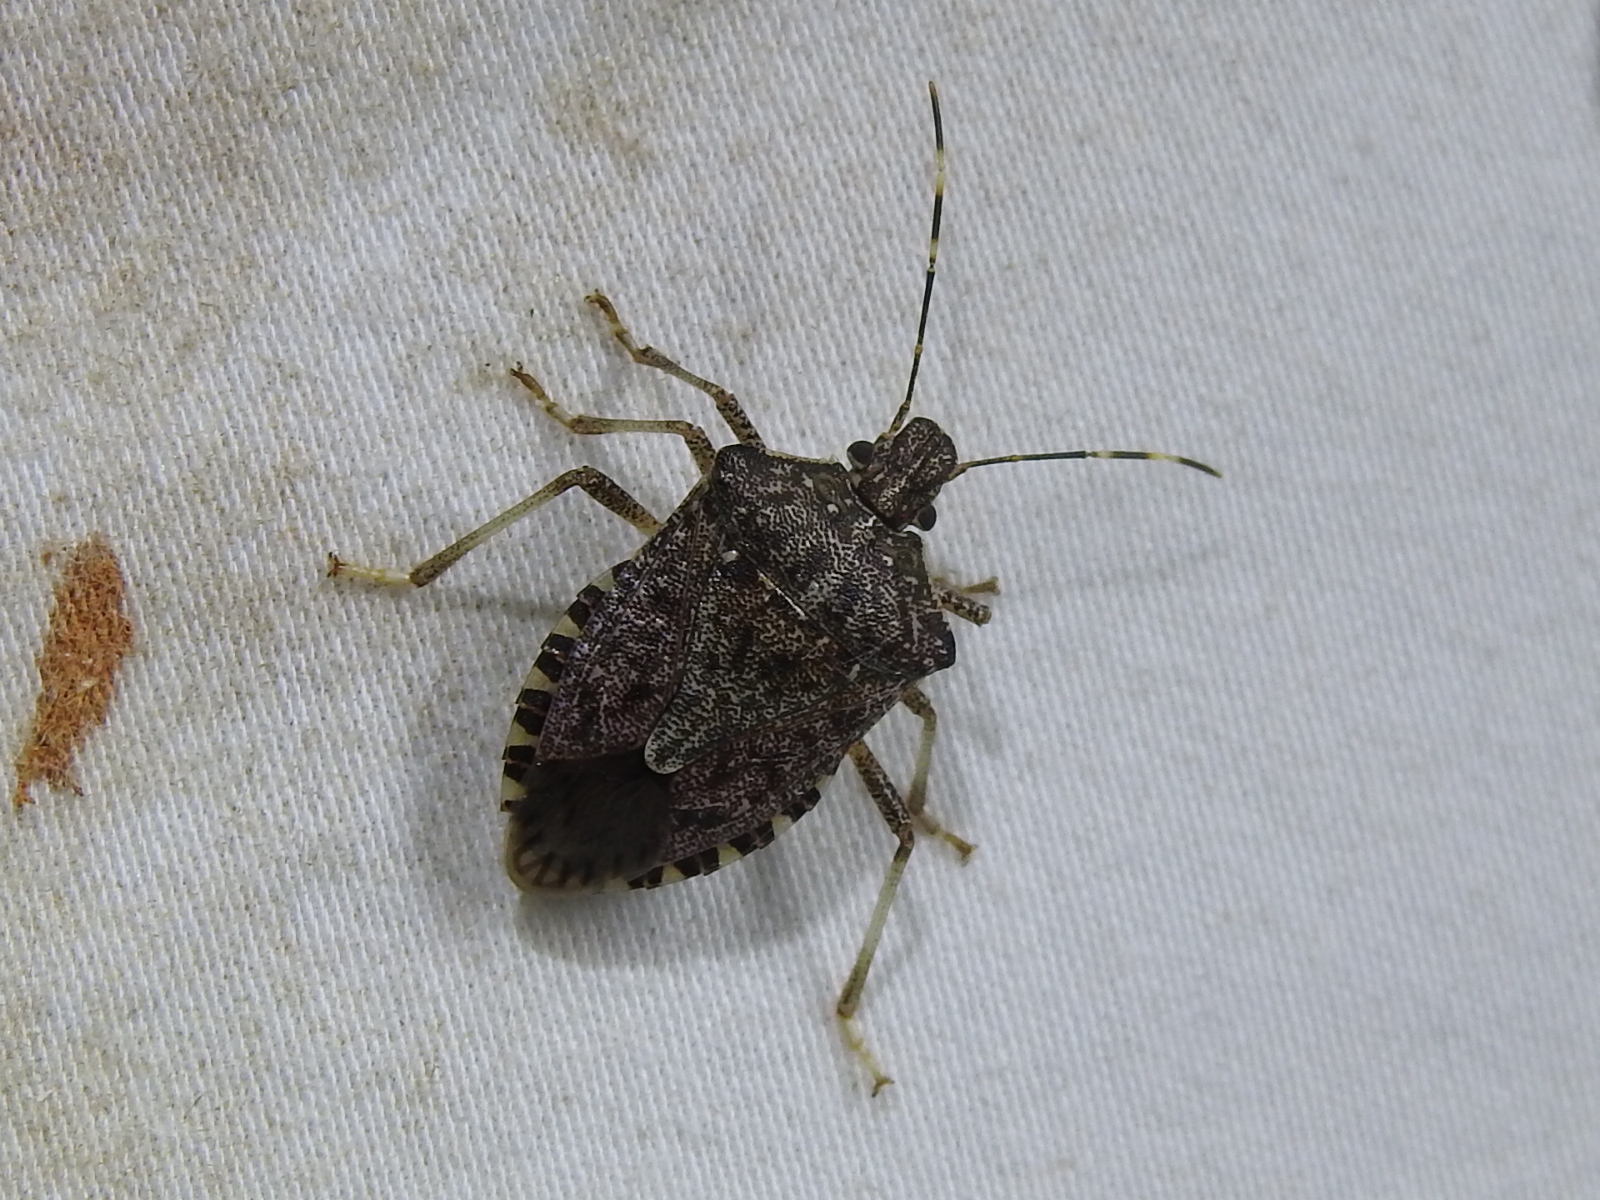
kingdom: Animalia
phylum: Arthropoda
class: Insecta
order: Hemiptera
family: Pentatomidae
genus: Halyomorpha
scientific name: Halyomorpha halys
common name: Brown marmorated stink bug
